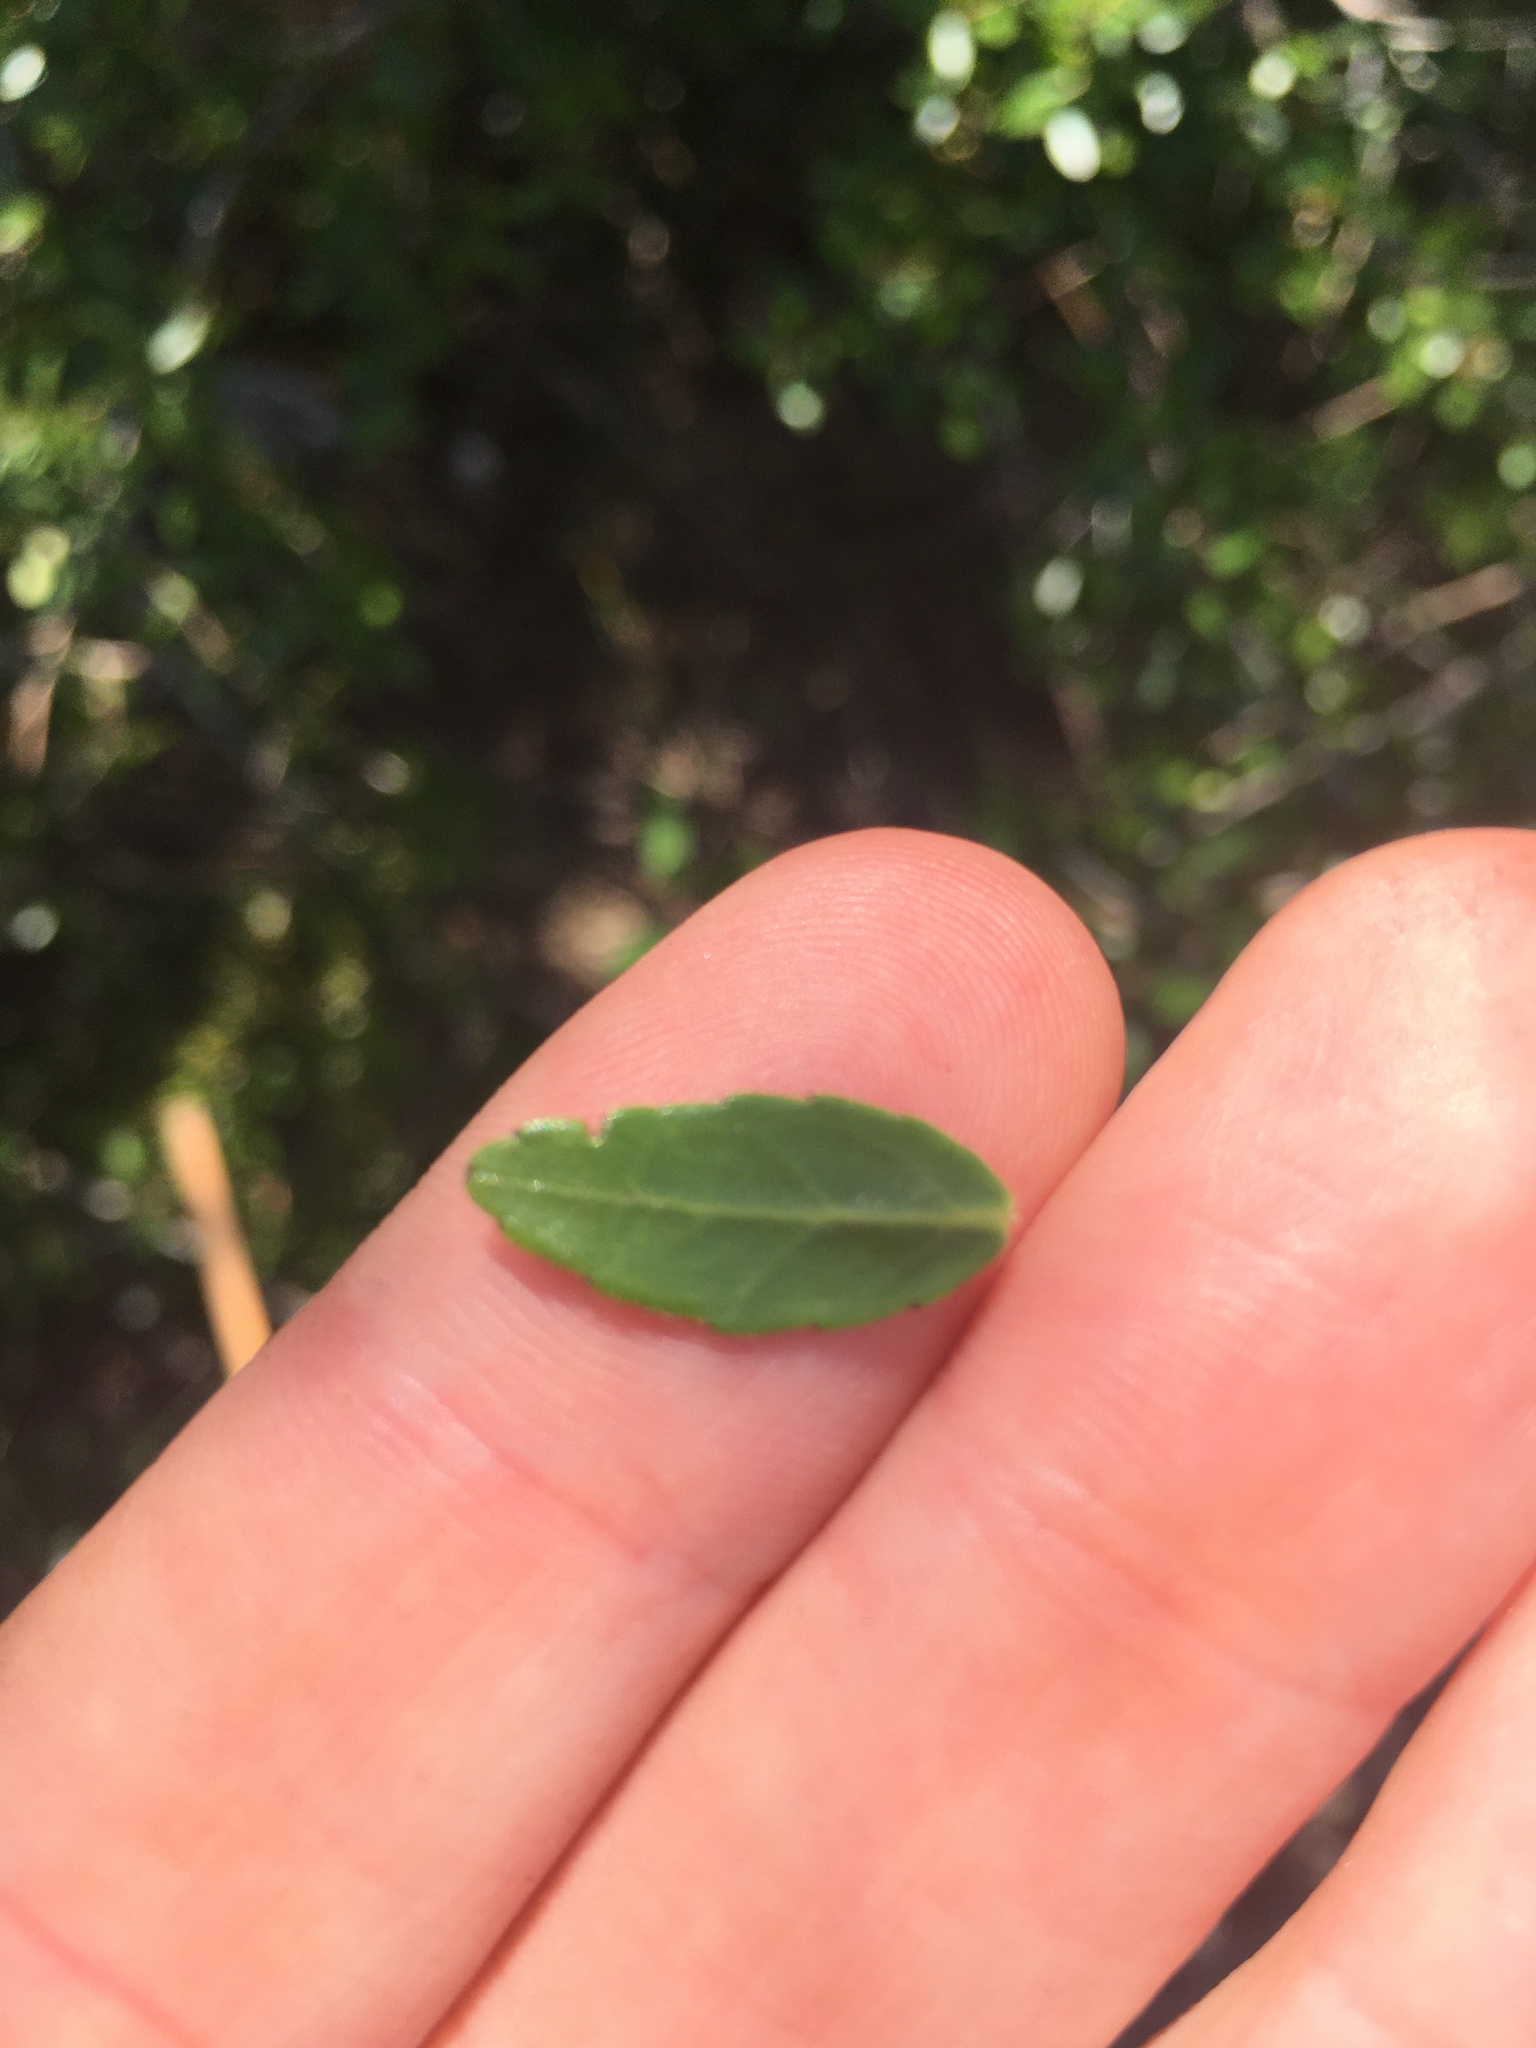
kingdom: Plantae
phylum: Tracheophyta
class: Magnoliopsida
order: Aquifoliales
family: Aquifoliaceae
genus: Ilex
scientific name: Ilex vomitoria
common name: Yaupon holly
